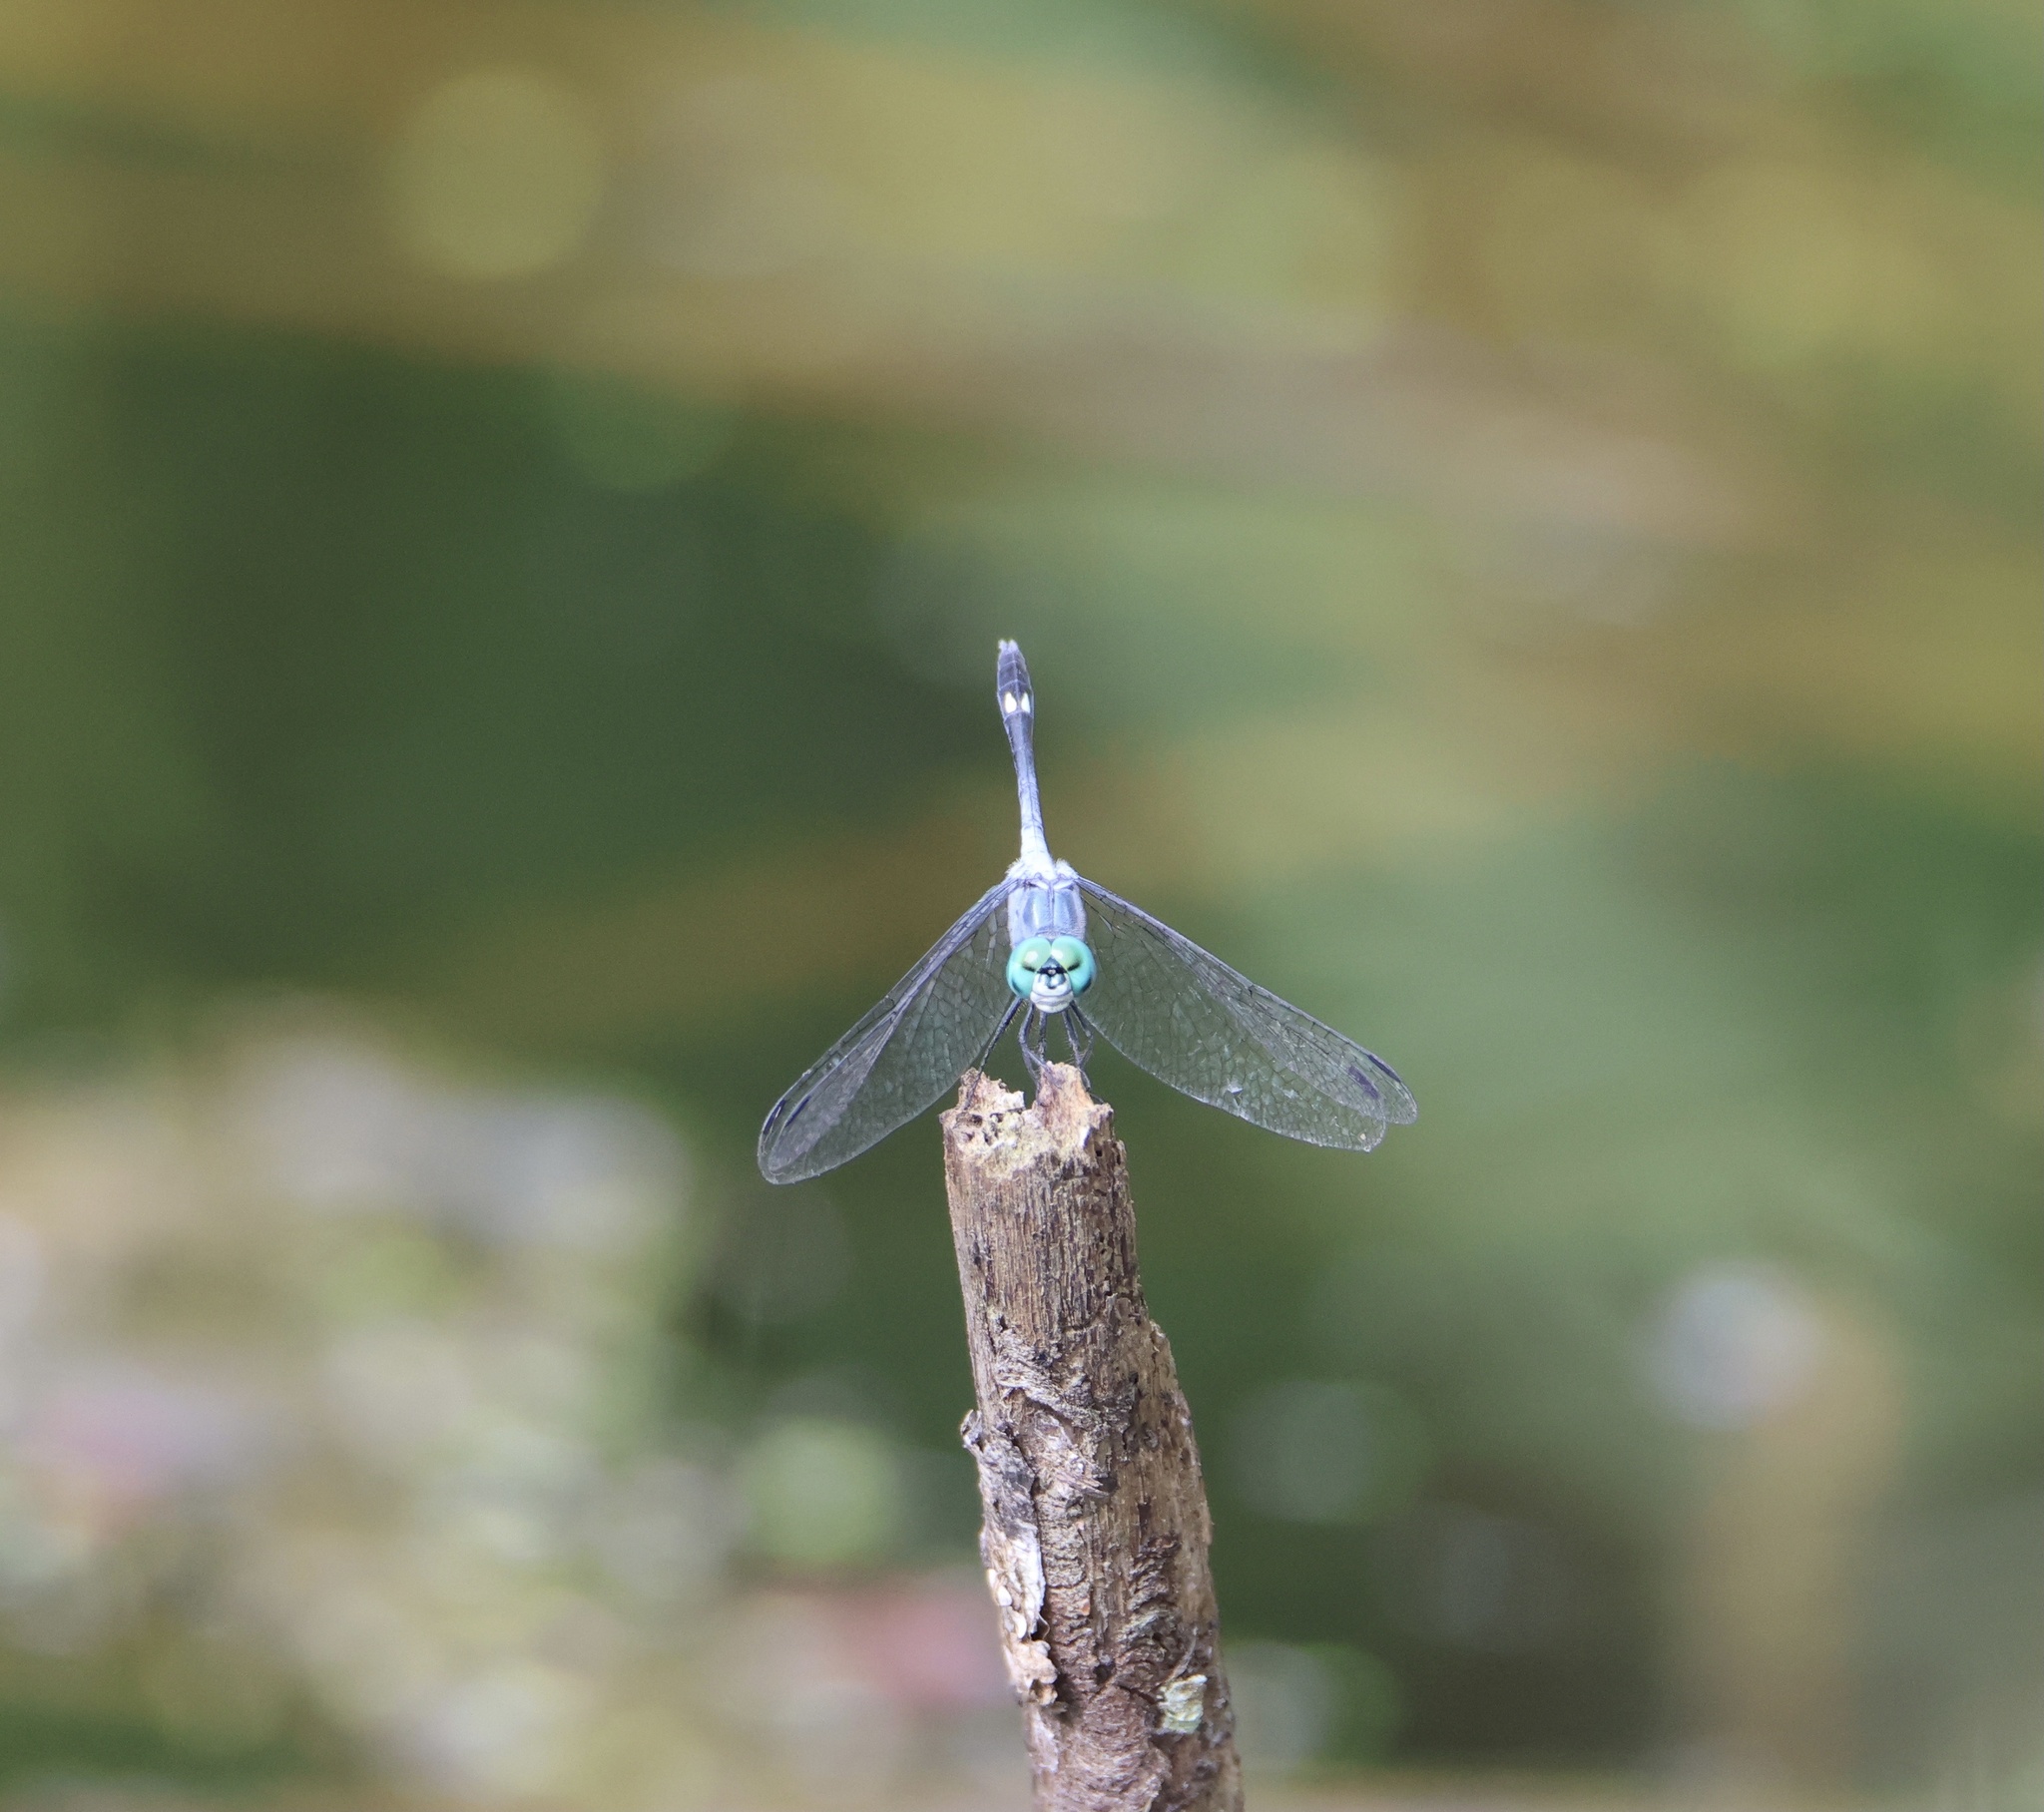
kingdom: Animalia
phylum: Arthropoda
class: Insecta
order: Odonata
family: Libellulidae
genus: Micrathyria
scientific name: Micrathyria aequalis
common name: Spot-tailed dasher
